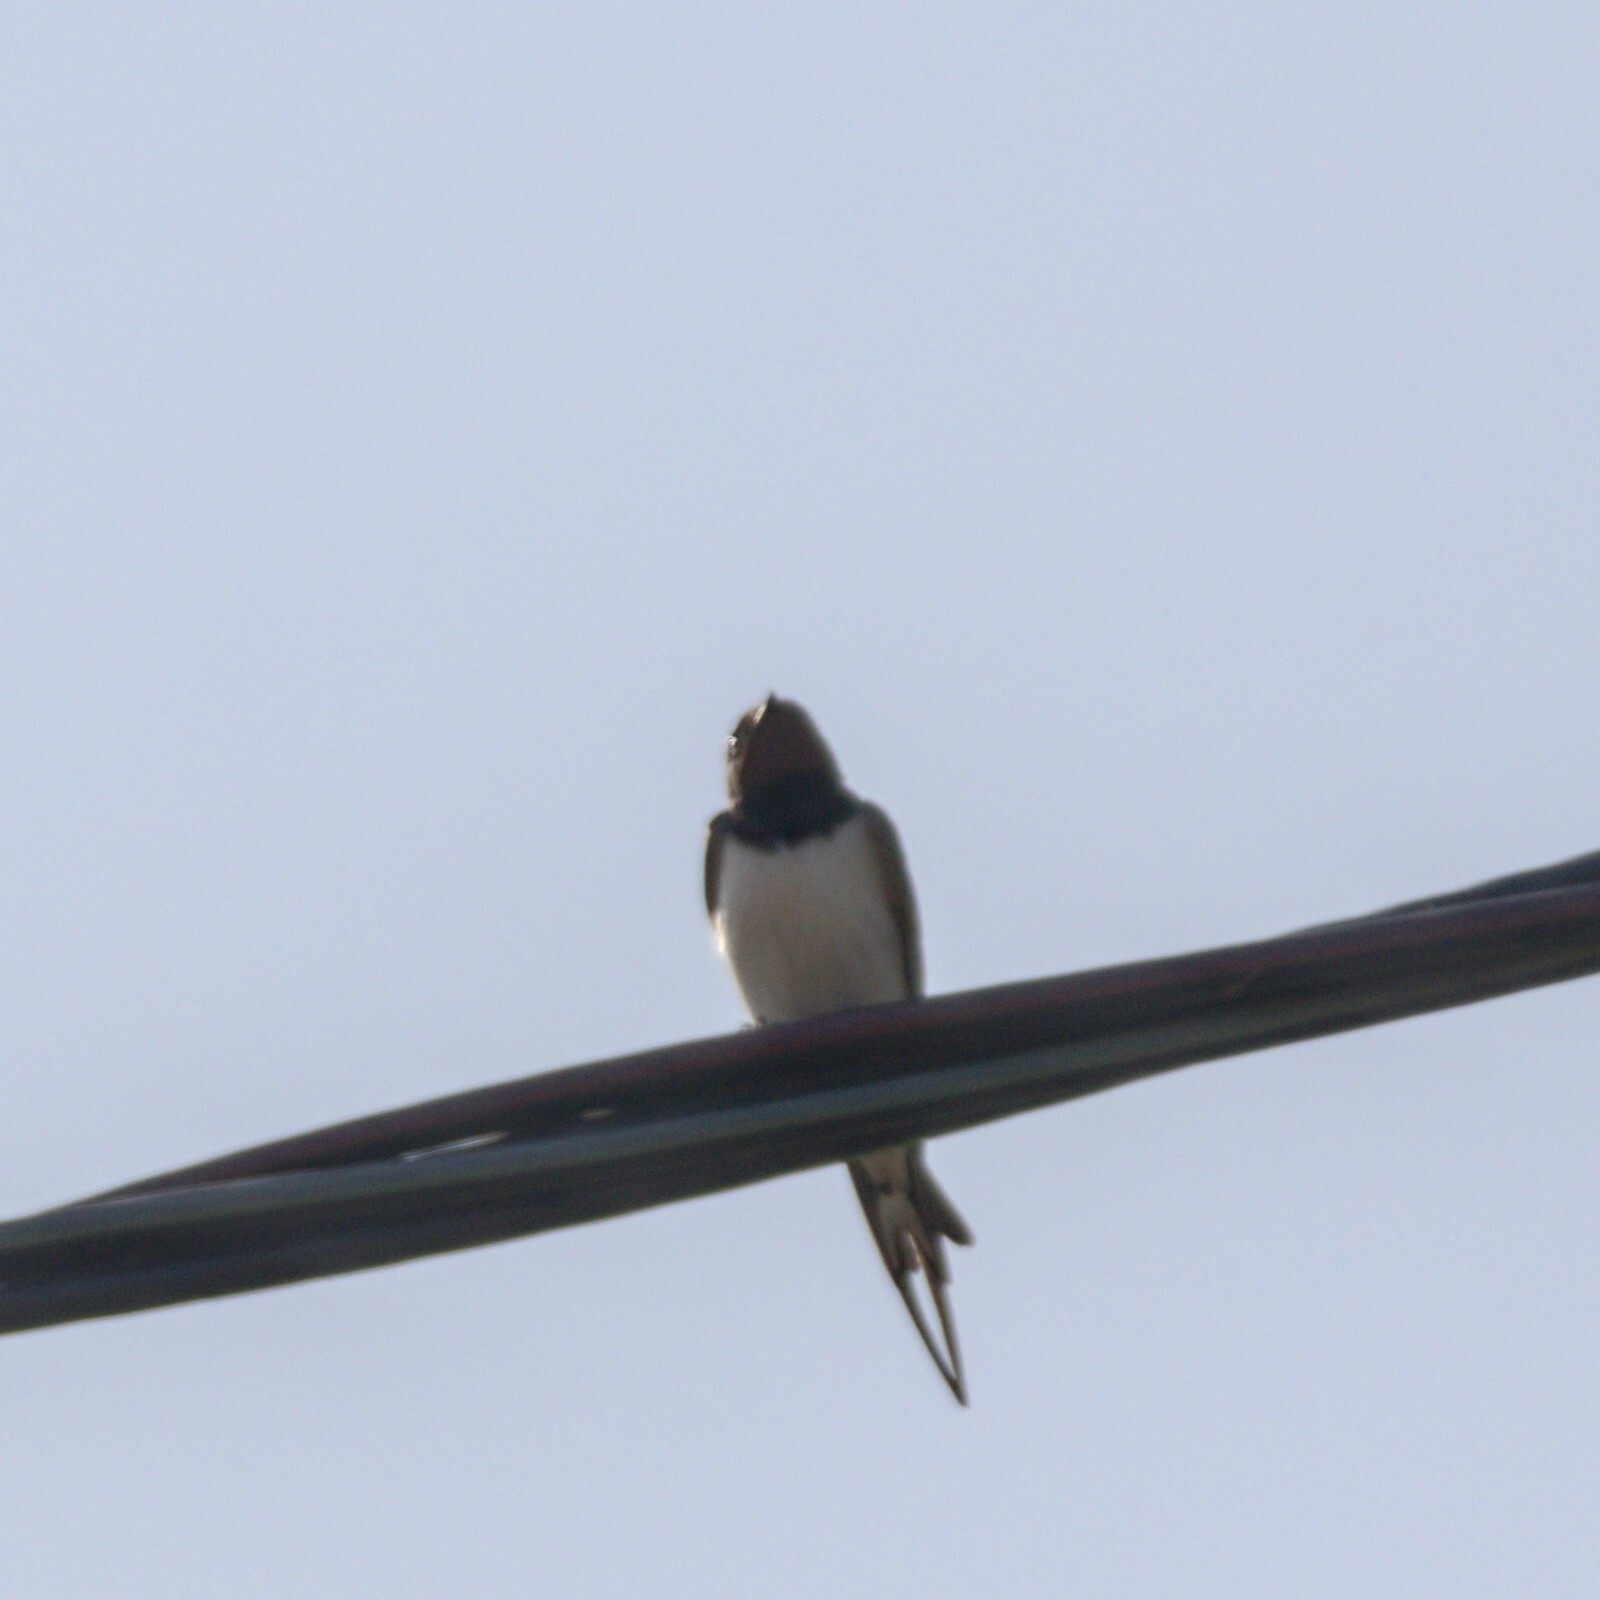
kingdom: Animalia
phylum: Chordata
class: Aves
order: Passeriformes
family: Hirundinidae
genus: Hirundo
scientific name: Hirundo rustica
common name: Barn swallow
